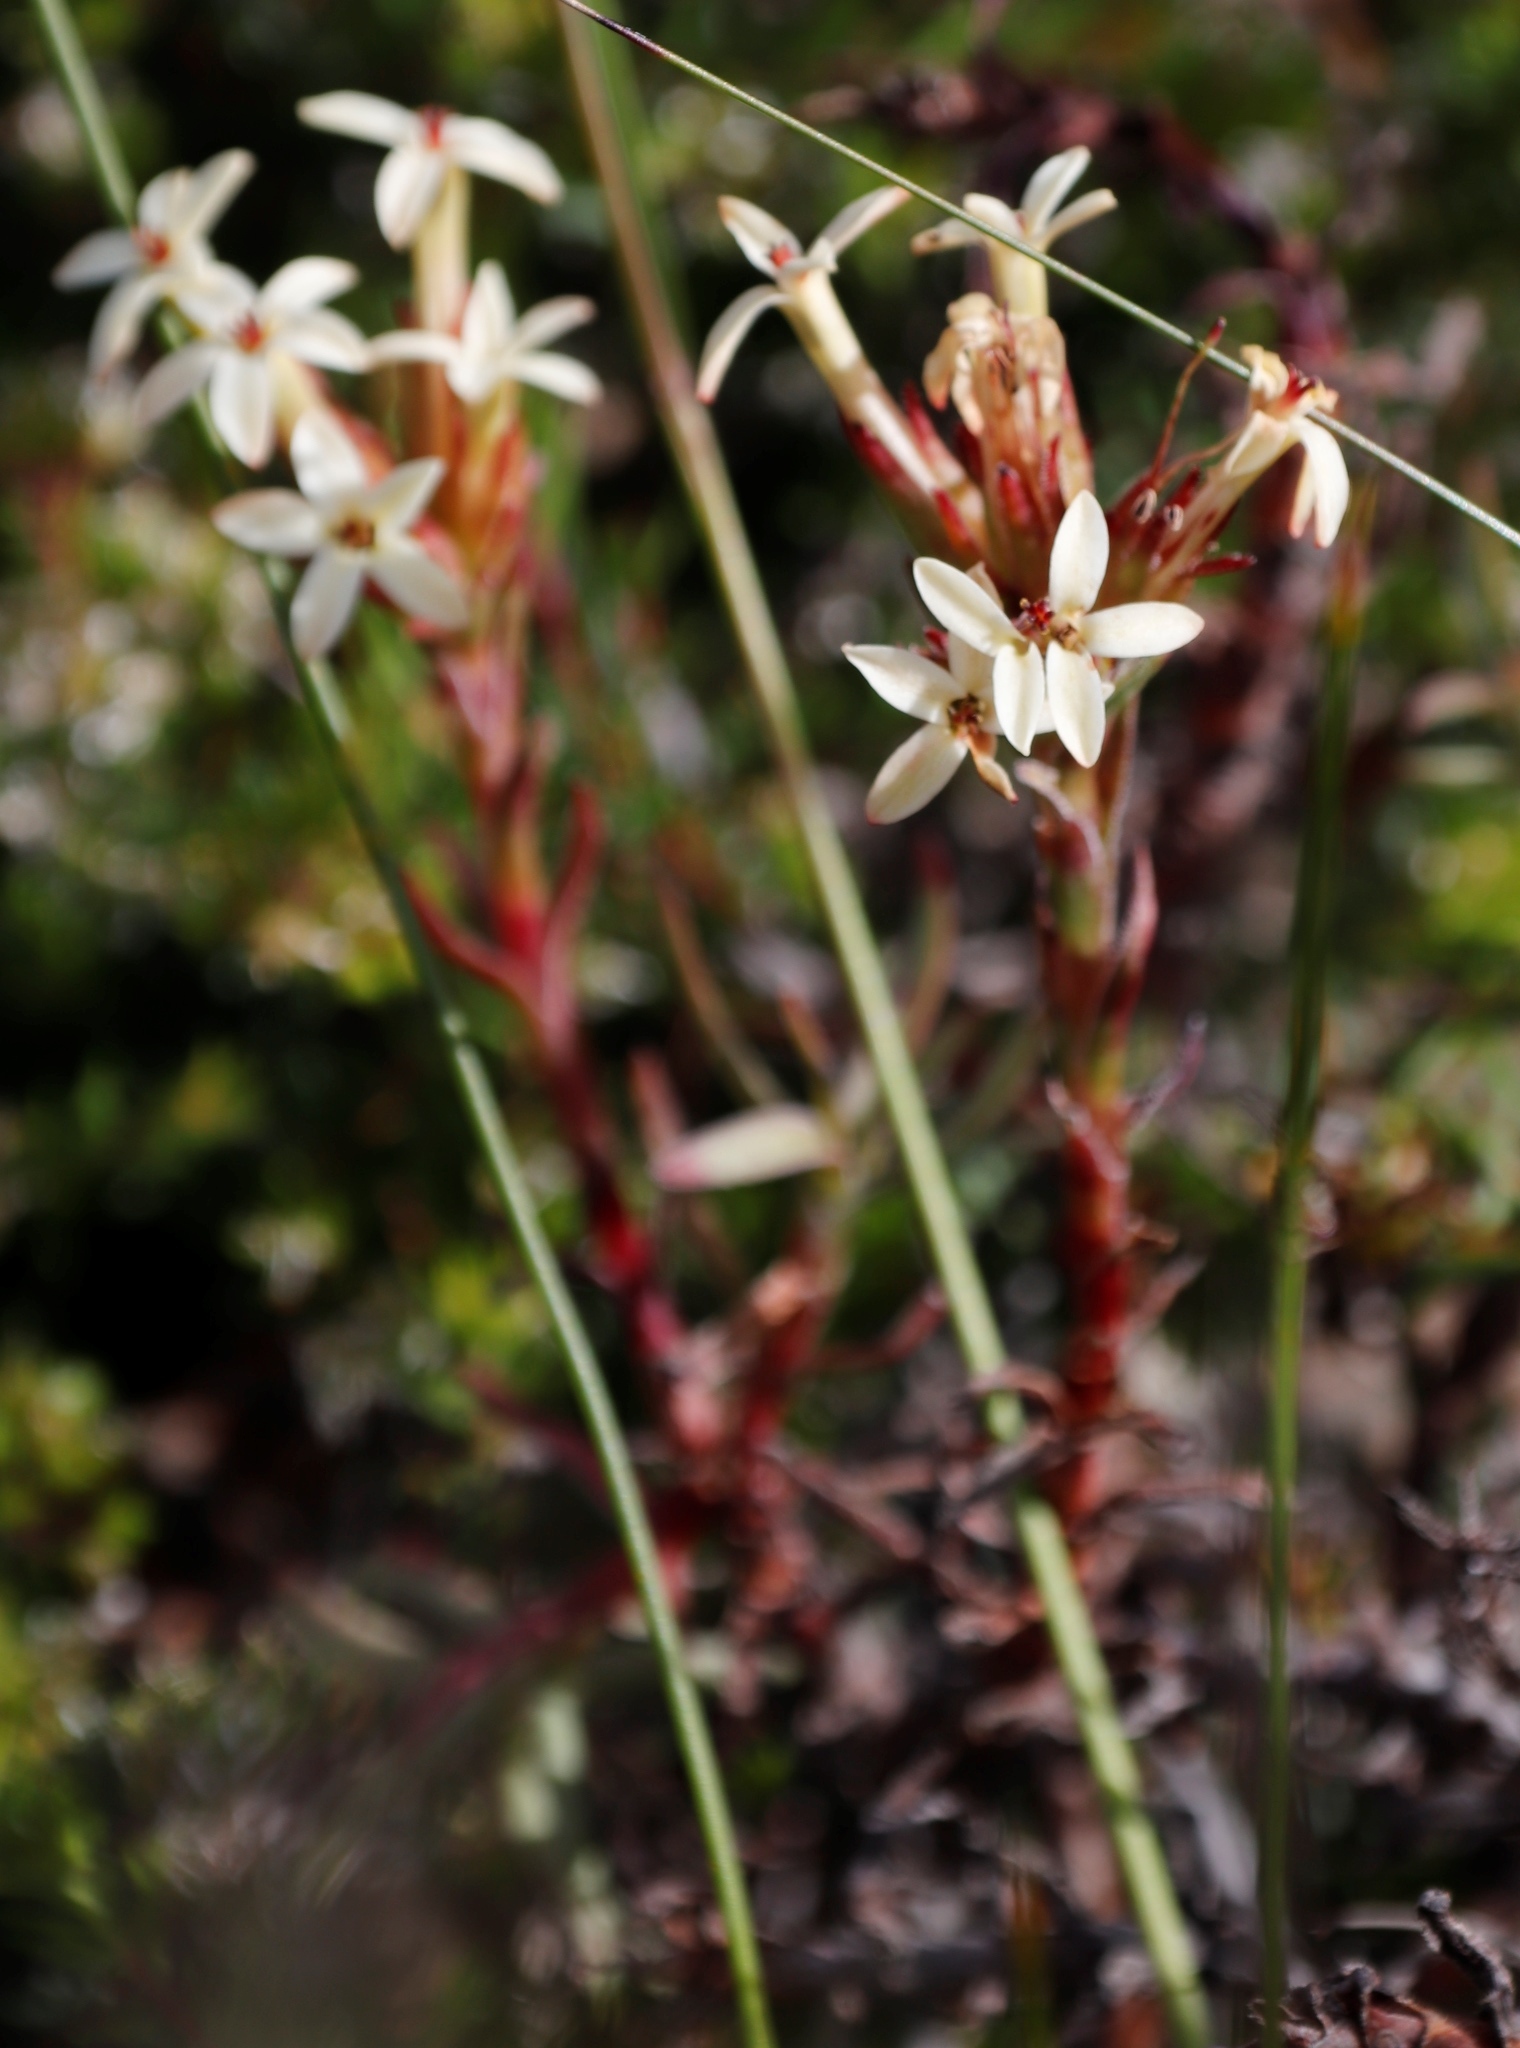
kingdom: Plantae
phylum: Tracheophyta
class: Magnoliopsida
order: Saxifragales
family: Crassulaceae
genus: Crassula
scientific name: Crassula fascicularis
